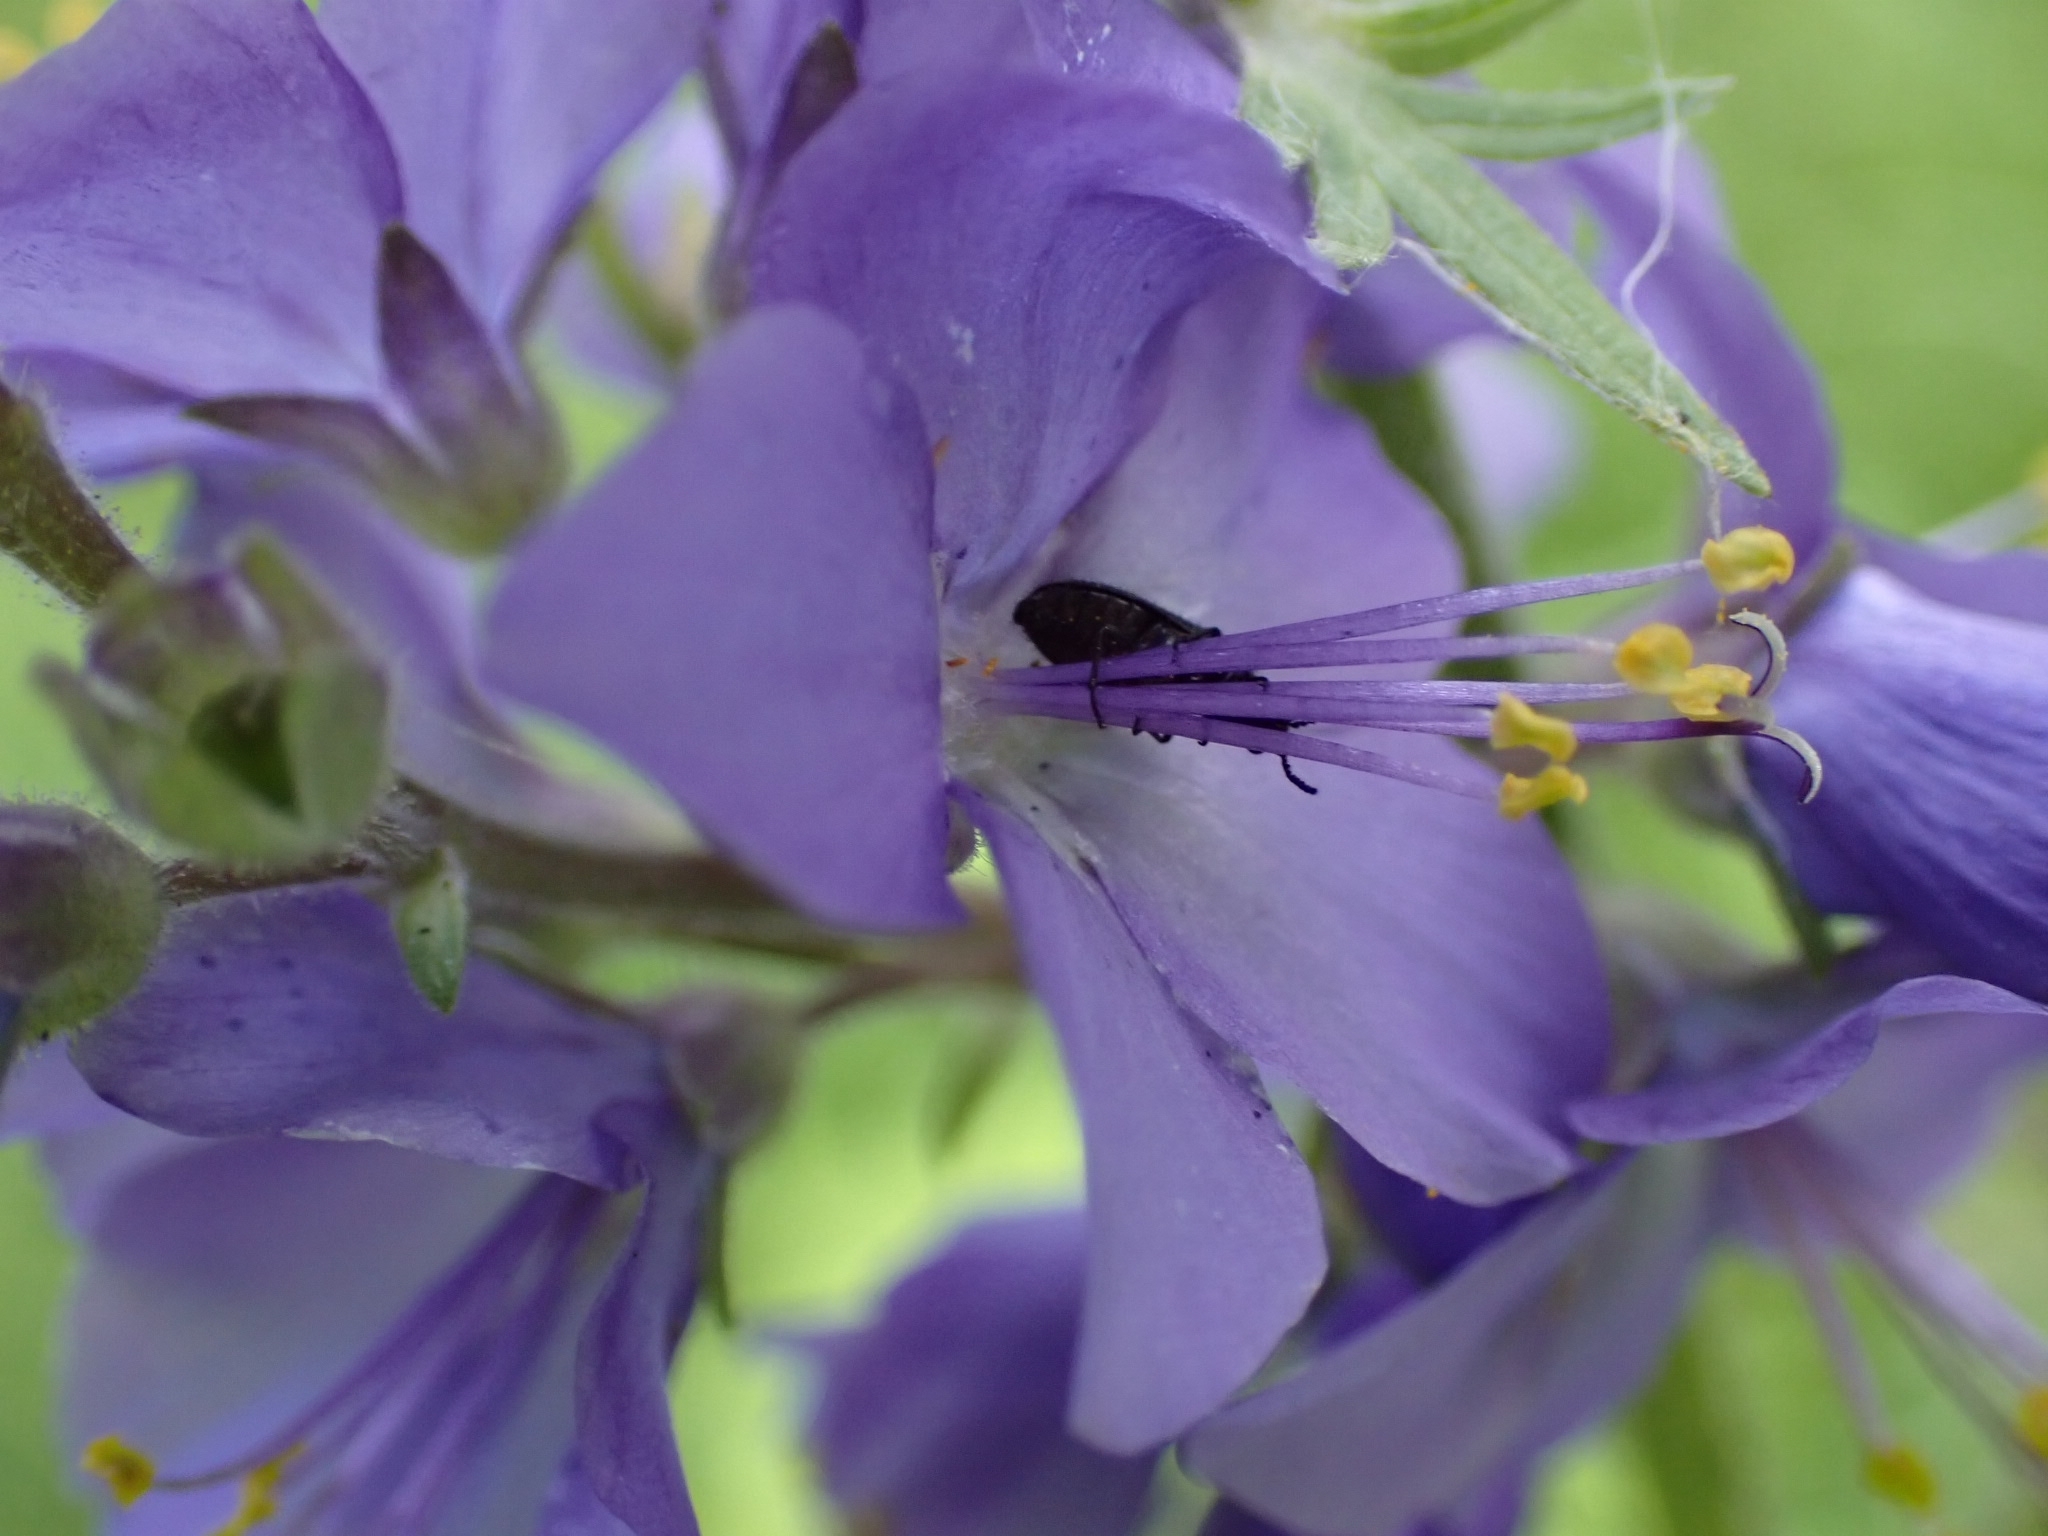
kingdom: Plantae
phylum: Tracheophyta
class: Magnoliopsida
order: Ericales
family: Polemoniaceae
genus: Polemonium
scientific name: Polemonium caeruleum
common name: Jacob's-ladder
